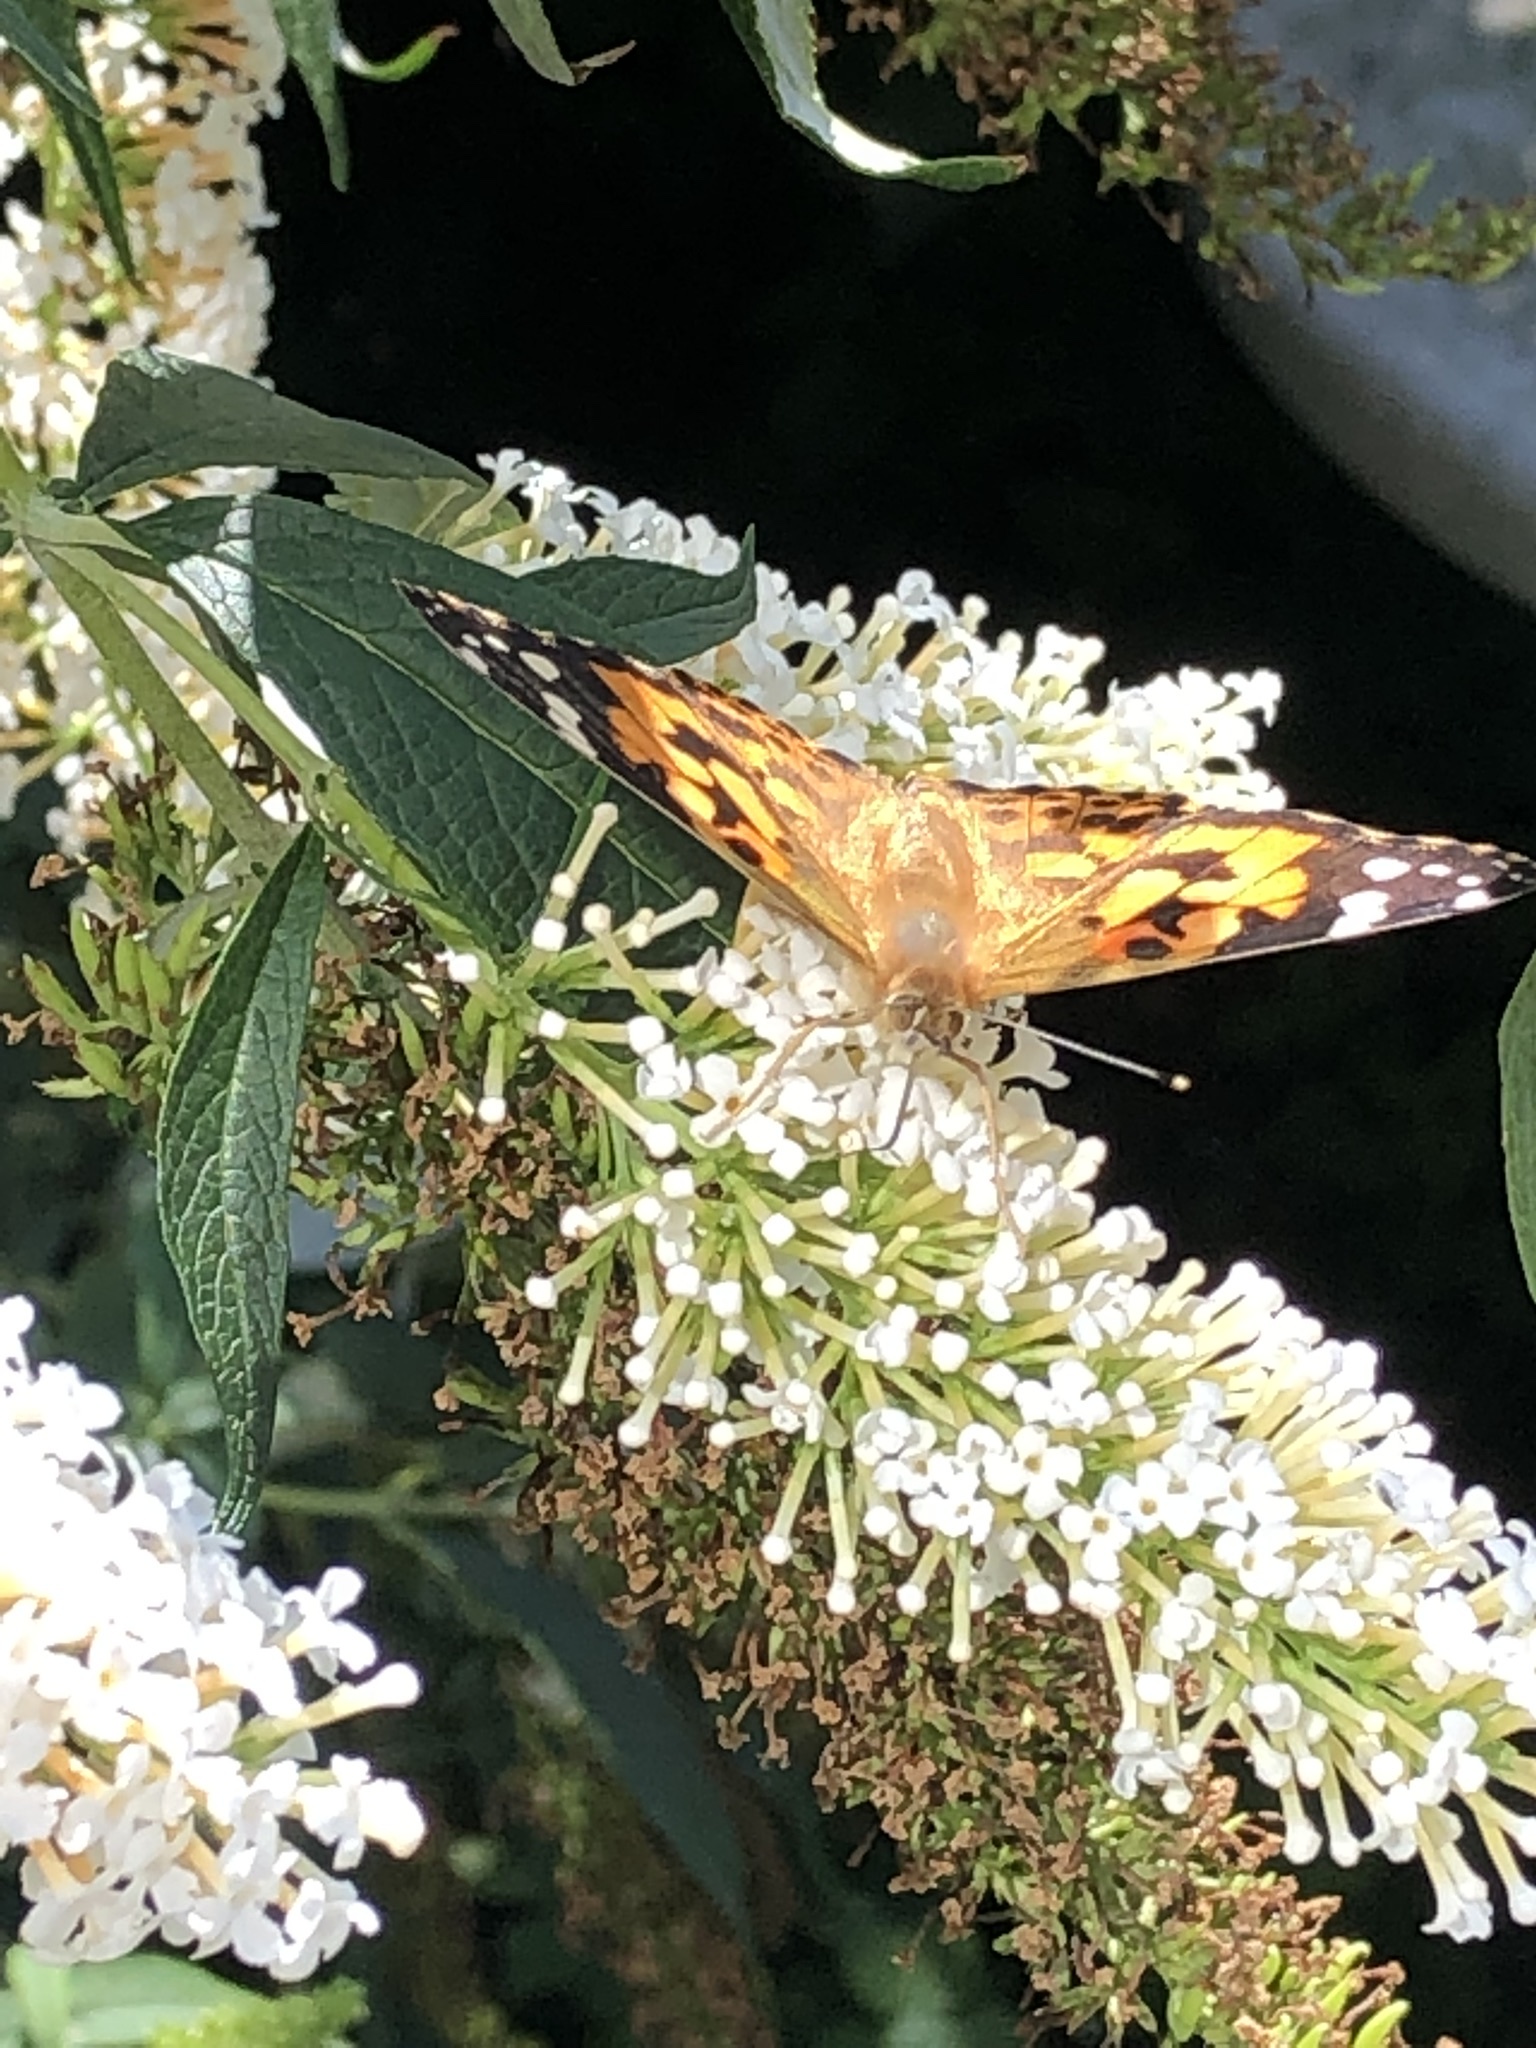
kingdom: Animalia
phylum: Arthropoda
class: Insecta
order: Lepidoptera
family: Nymphalidae
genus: Vanessa
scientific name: Vanessa cardui
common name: Painted lady
